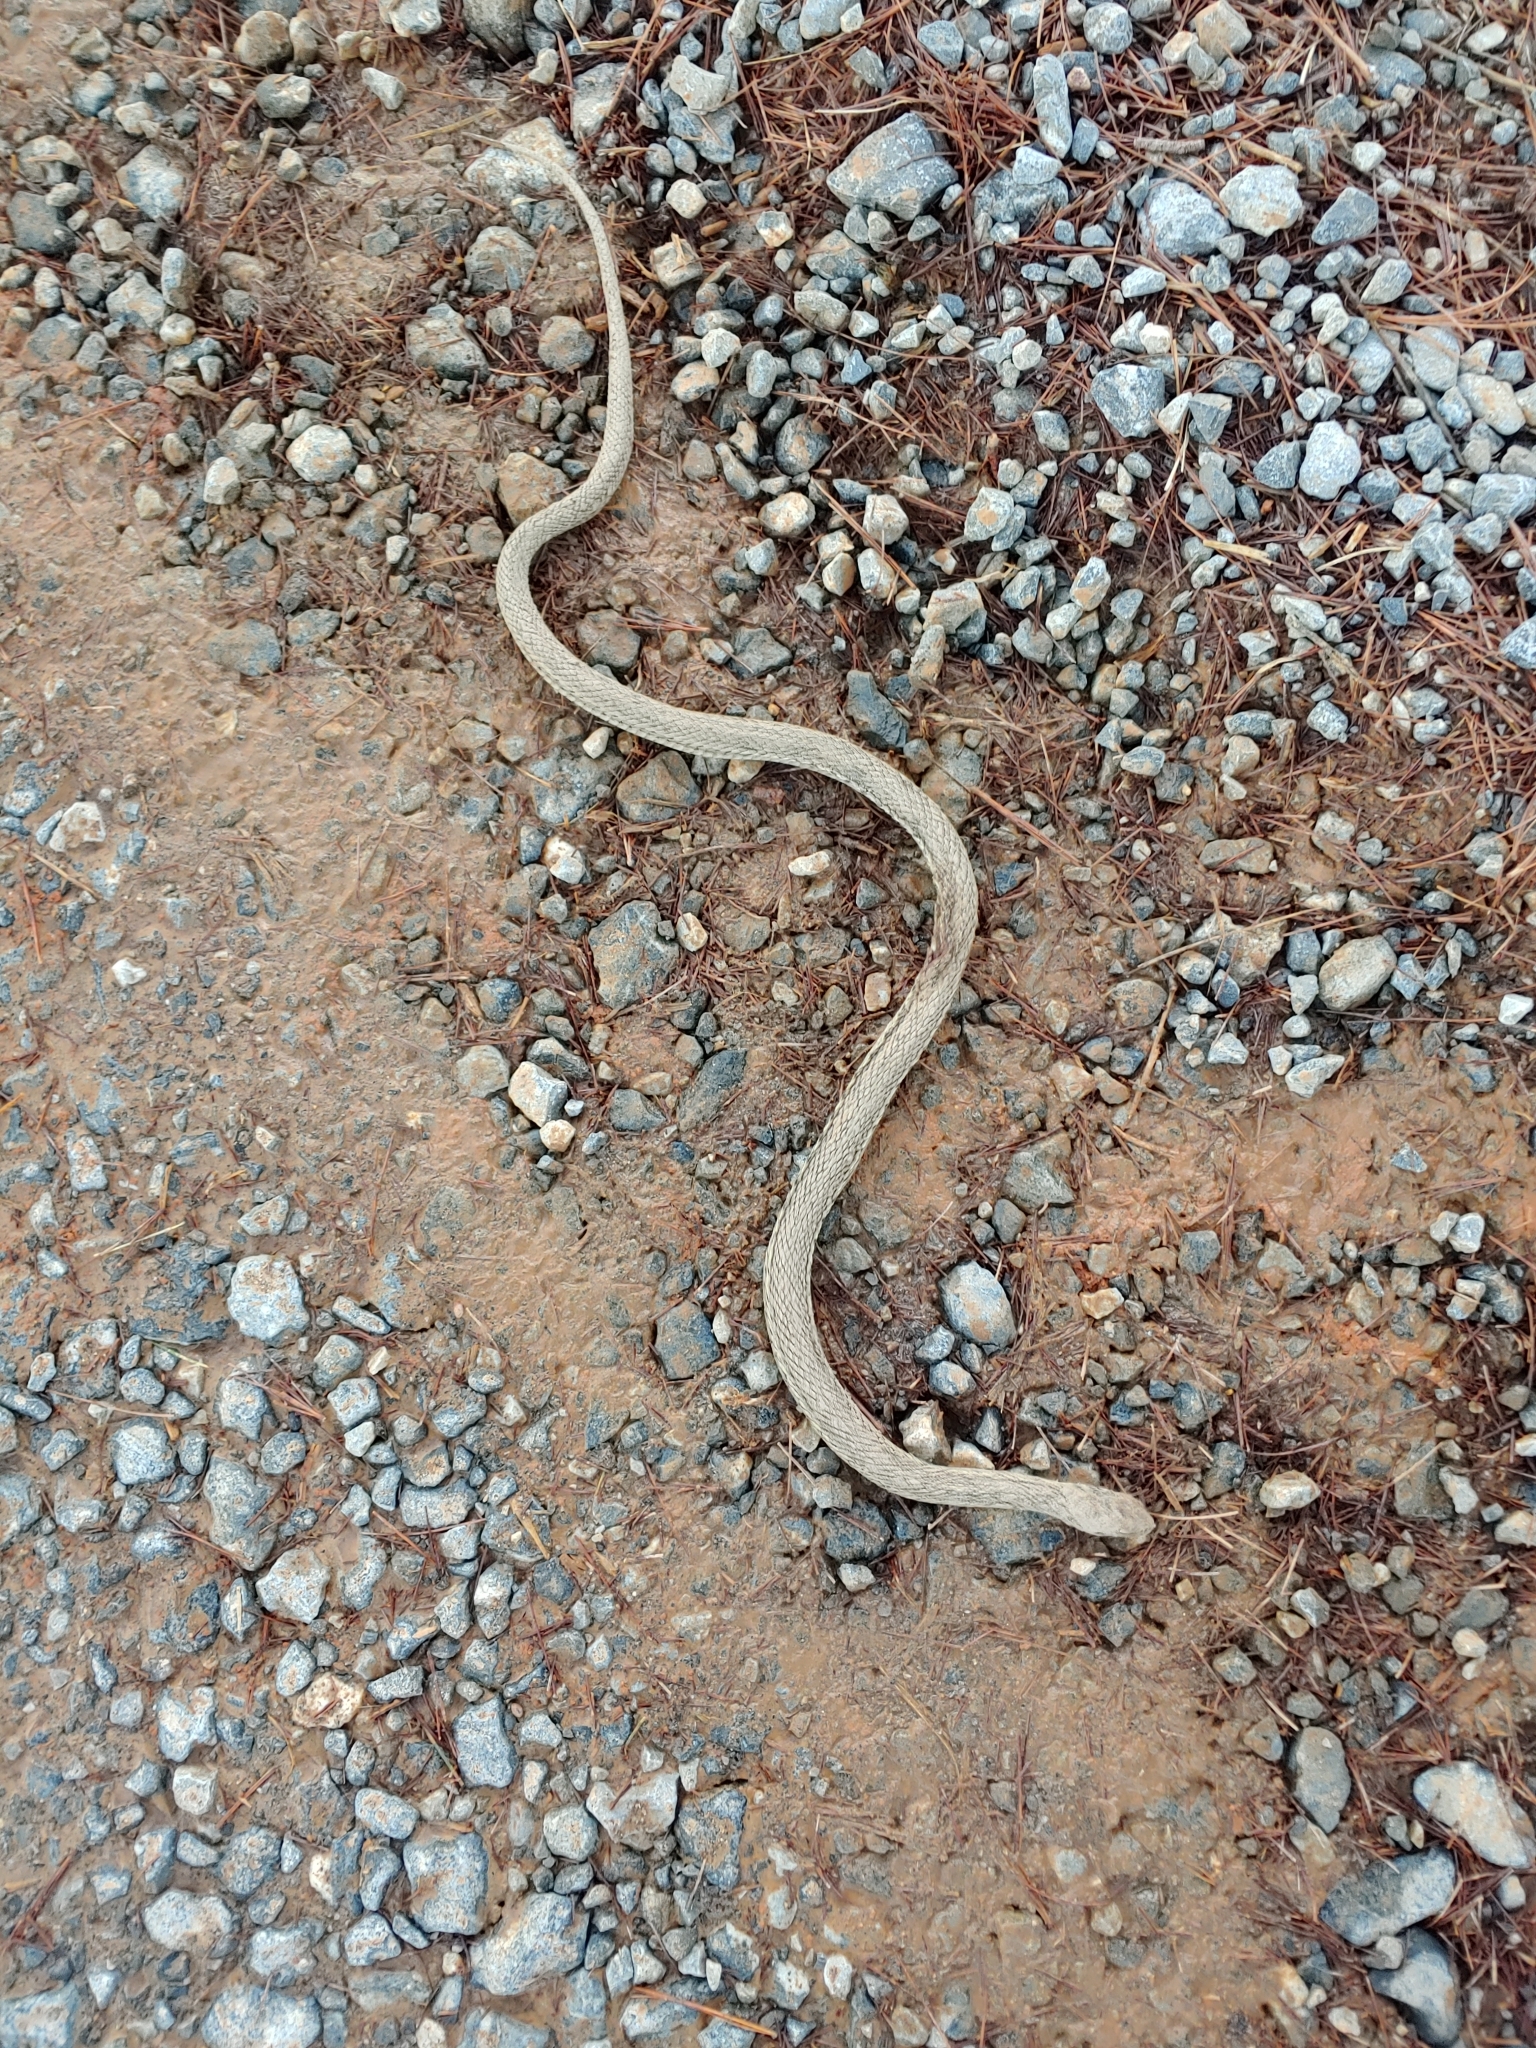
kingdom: Animalia
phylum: Chordata
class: Squamata
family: Colubridae
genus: Thamnophis
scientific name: Thamnophis sirtalis
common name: Common garter snake
